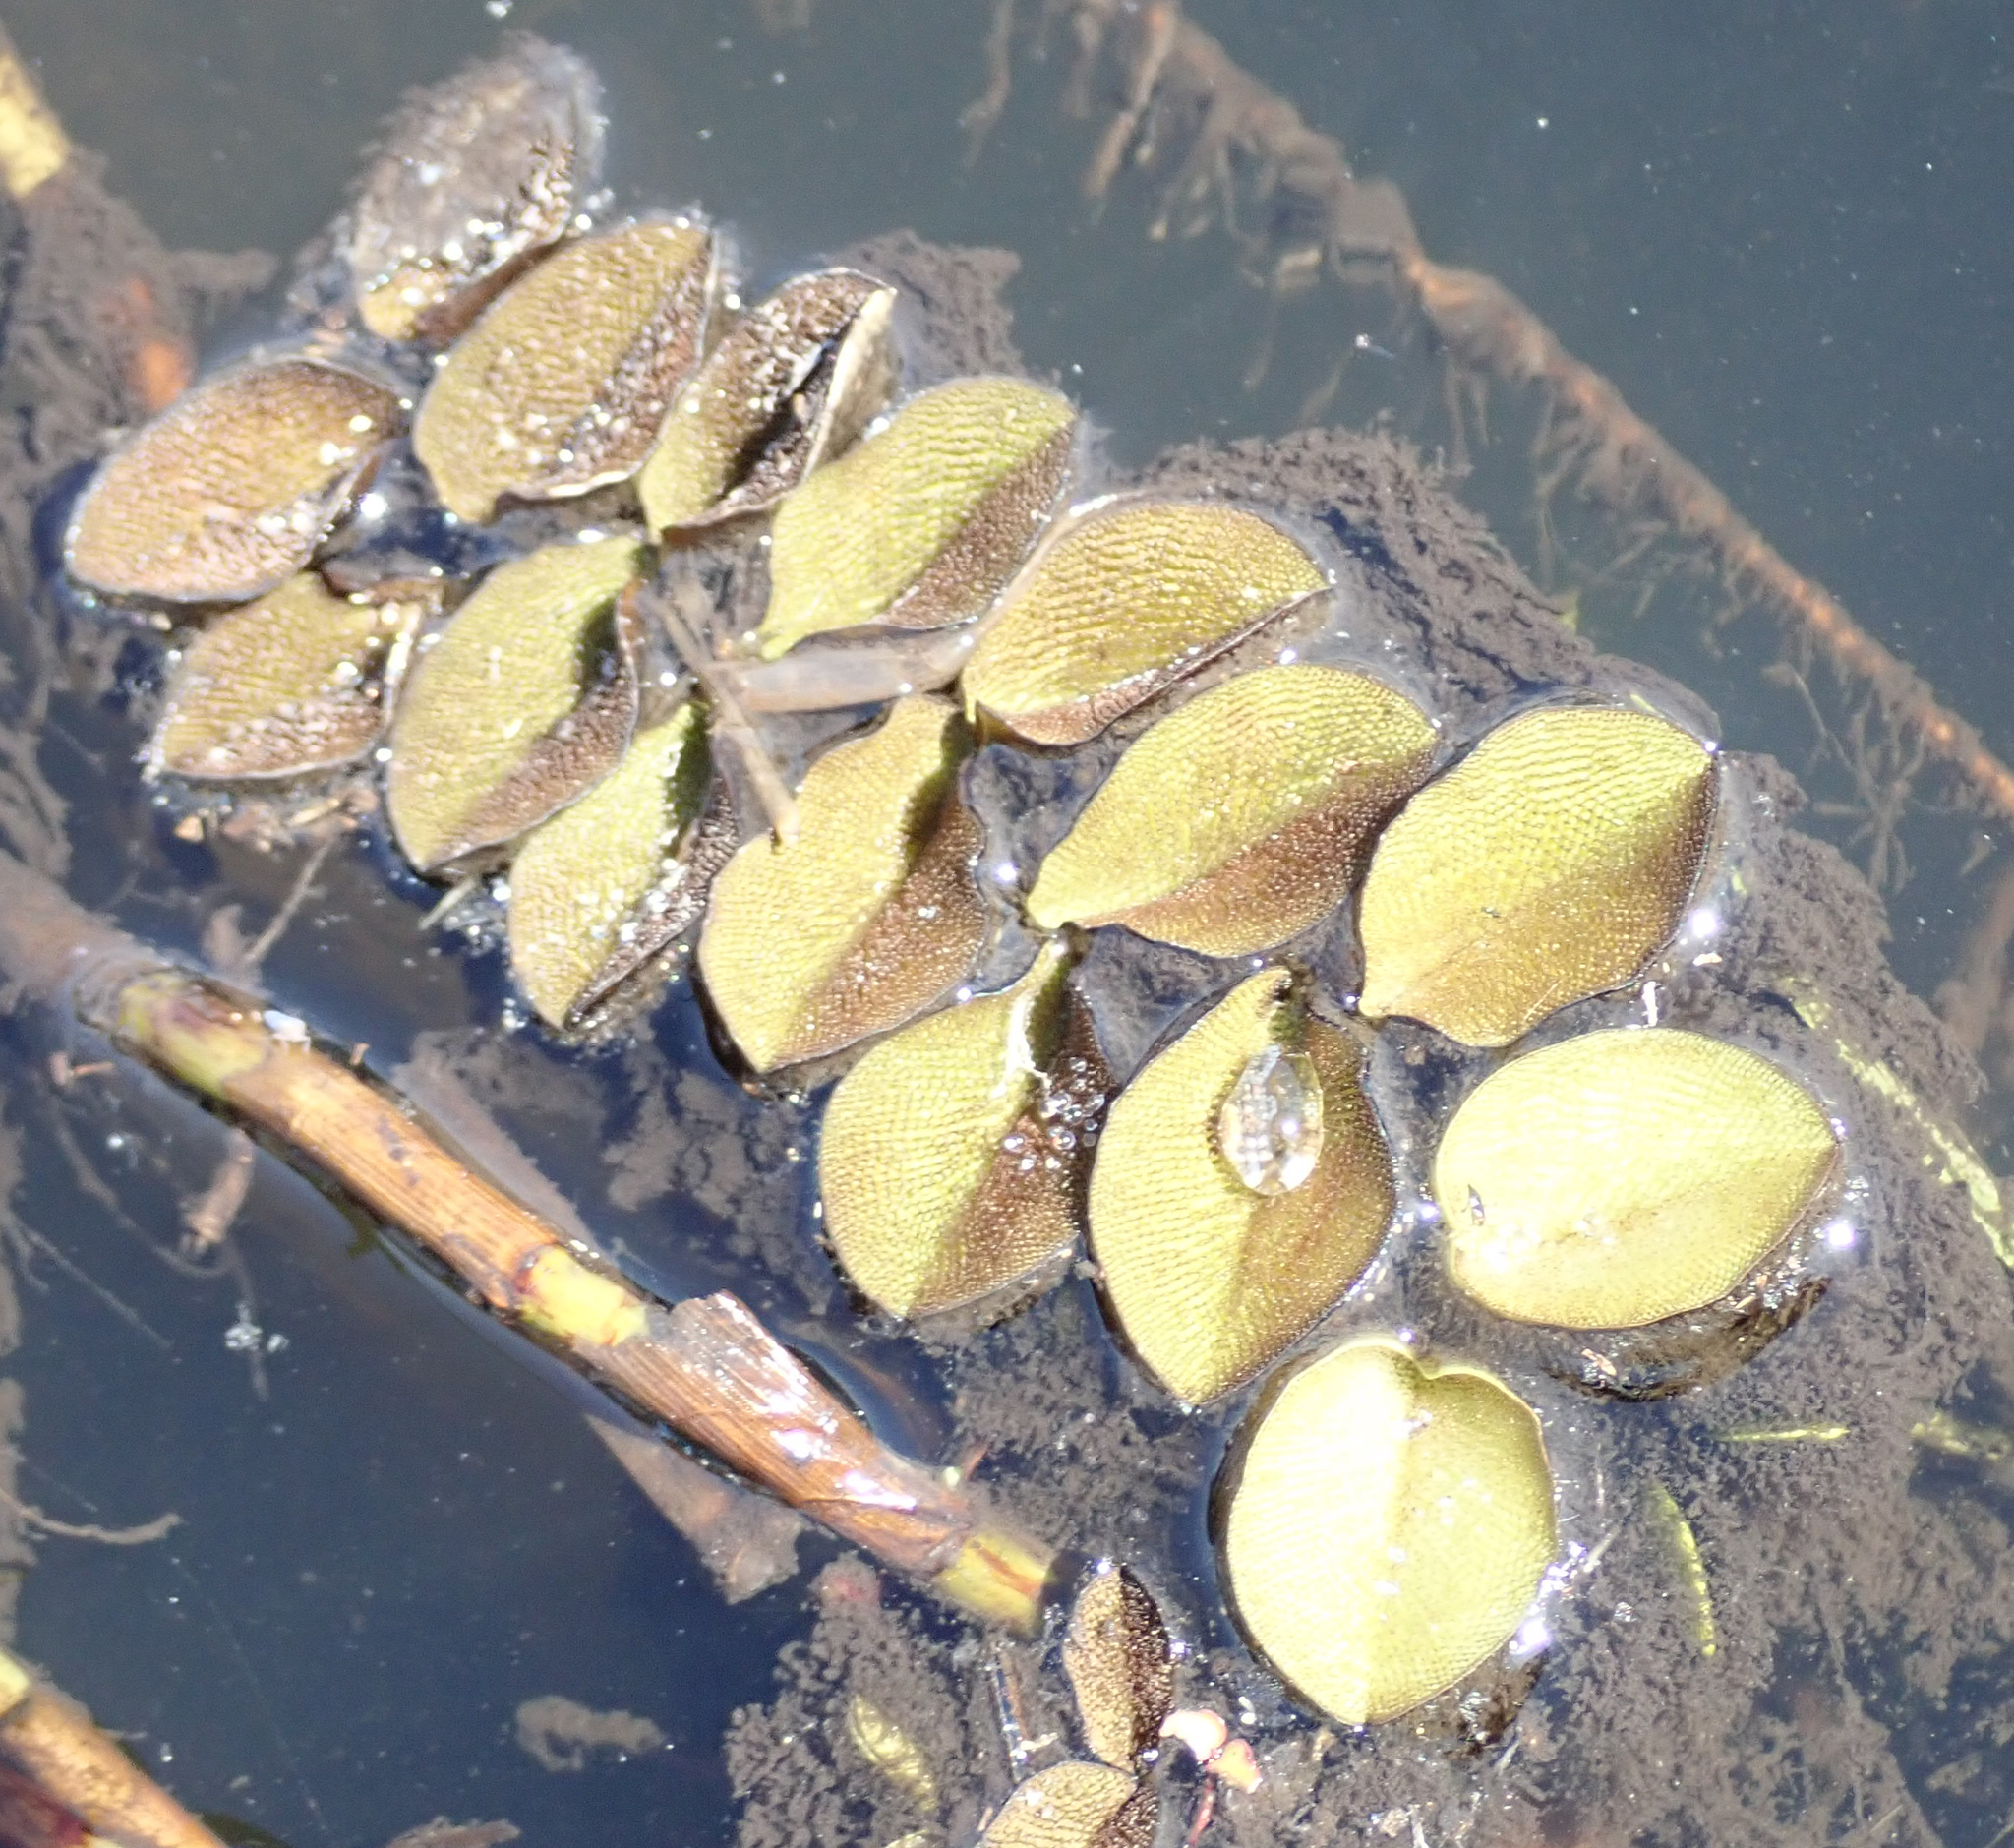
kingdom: Plantae
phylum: Tracheophyta
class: Polypodiopsida
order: Salviniales
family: Salviniaceae
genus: Salvinia
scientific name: Salvinia molesta
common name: Kariba weed
